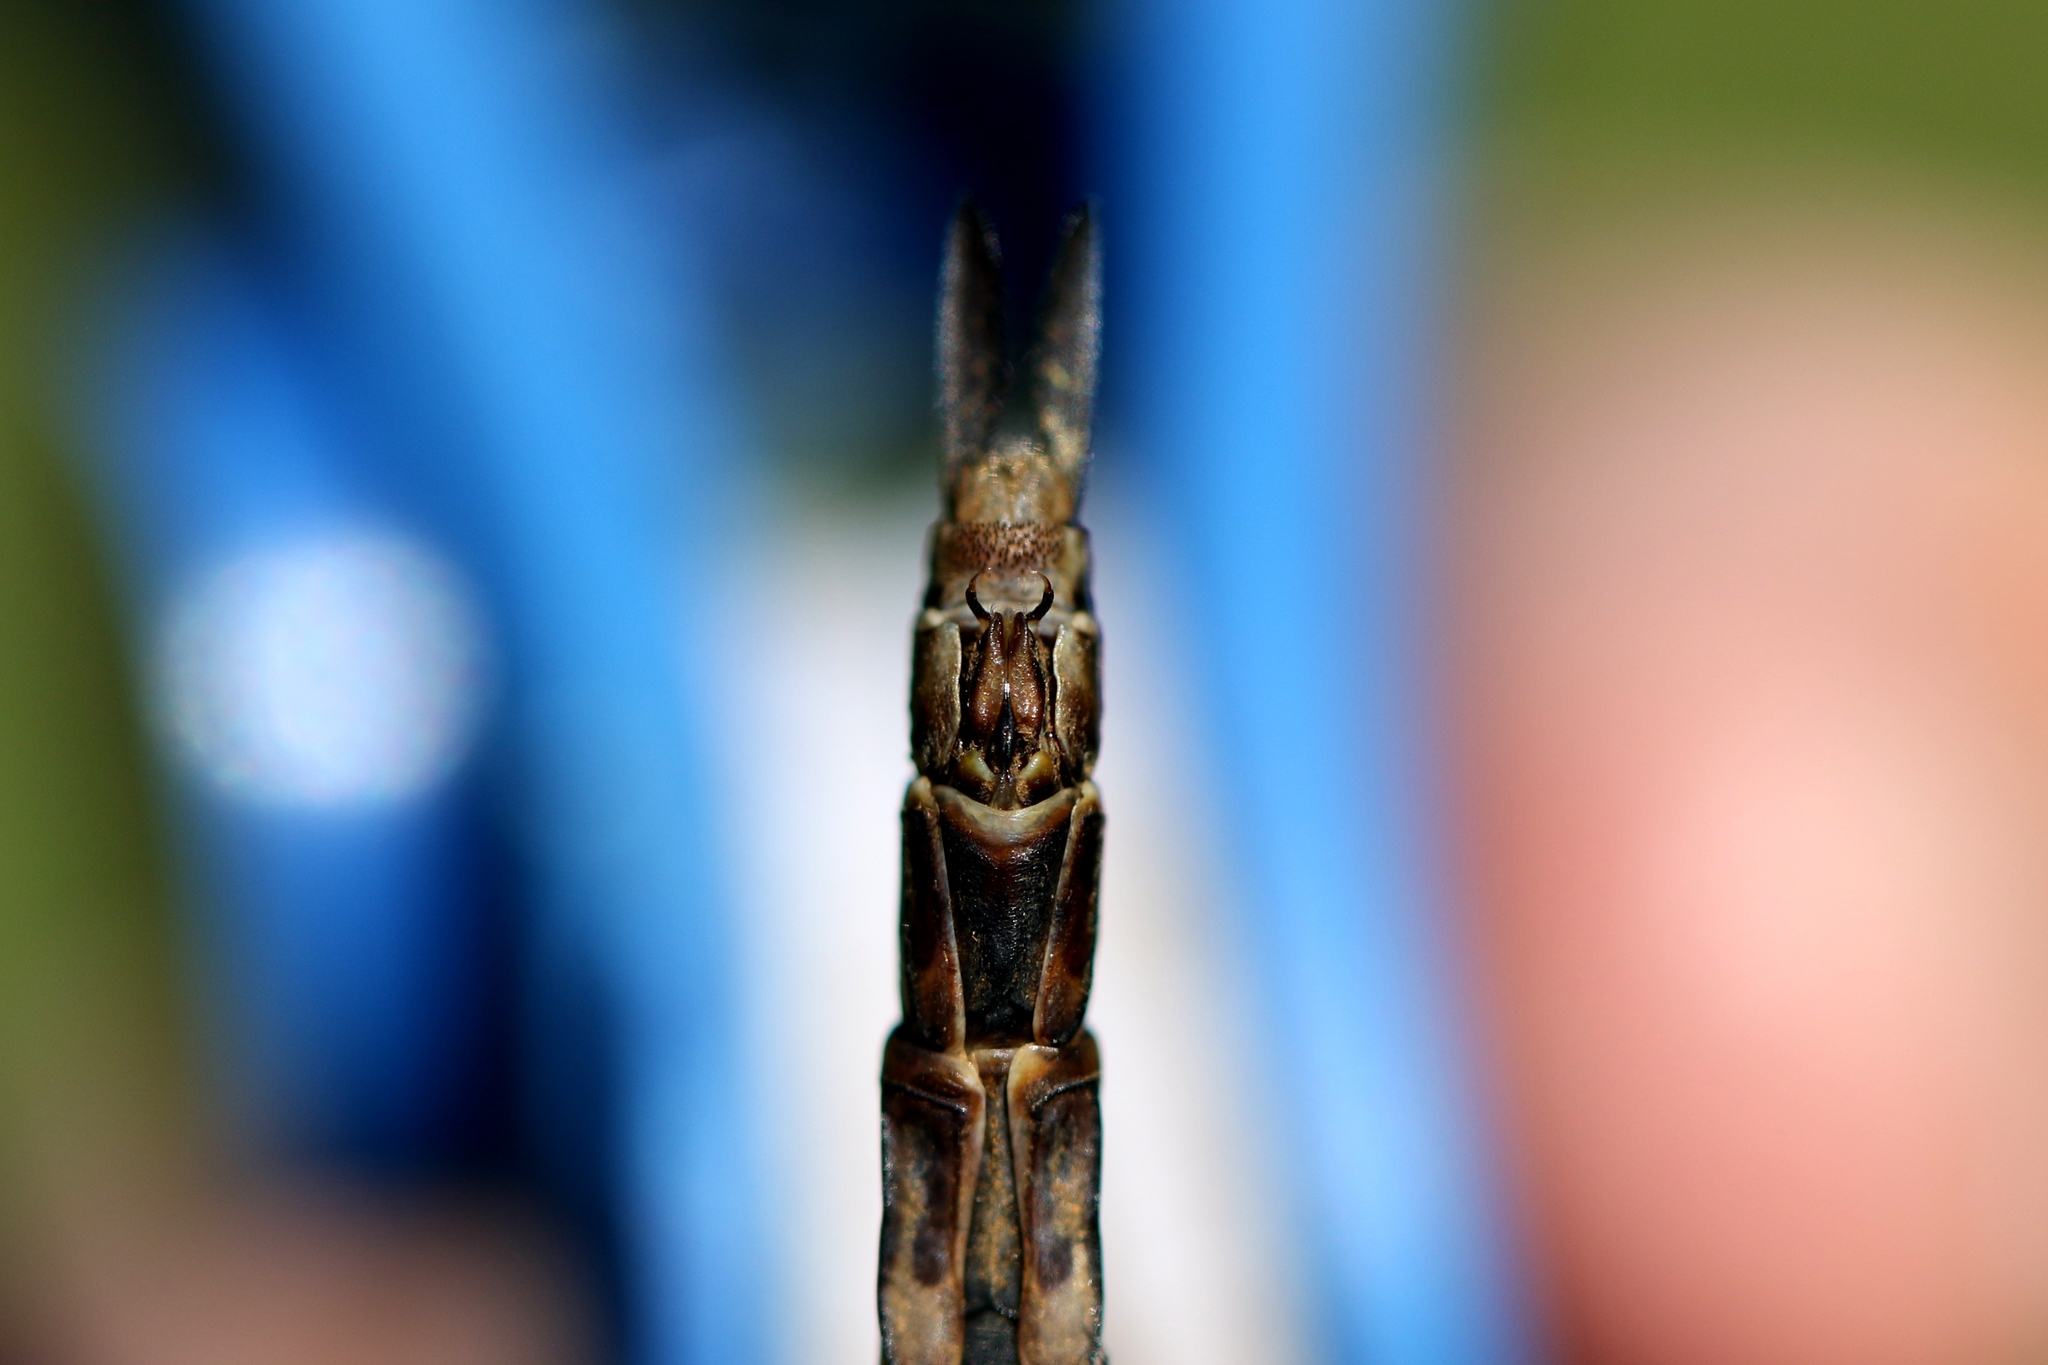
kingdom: Animalia
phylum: Arthropoda
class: Insecta
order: Odonata
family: Aeshnidae
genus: Aeshna
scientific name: Aeshna juncea
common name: Moorland hawker
